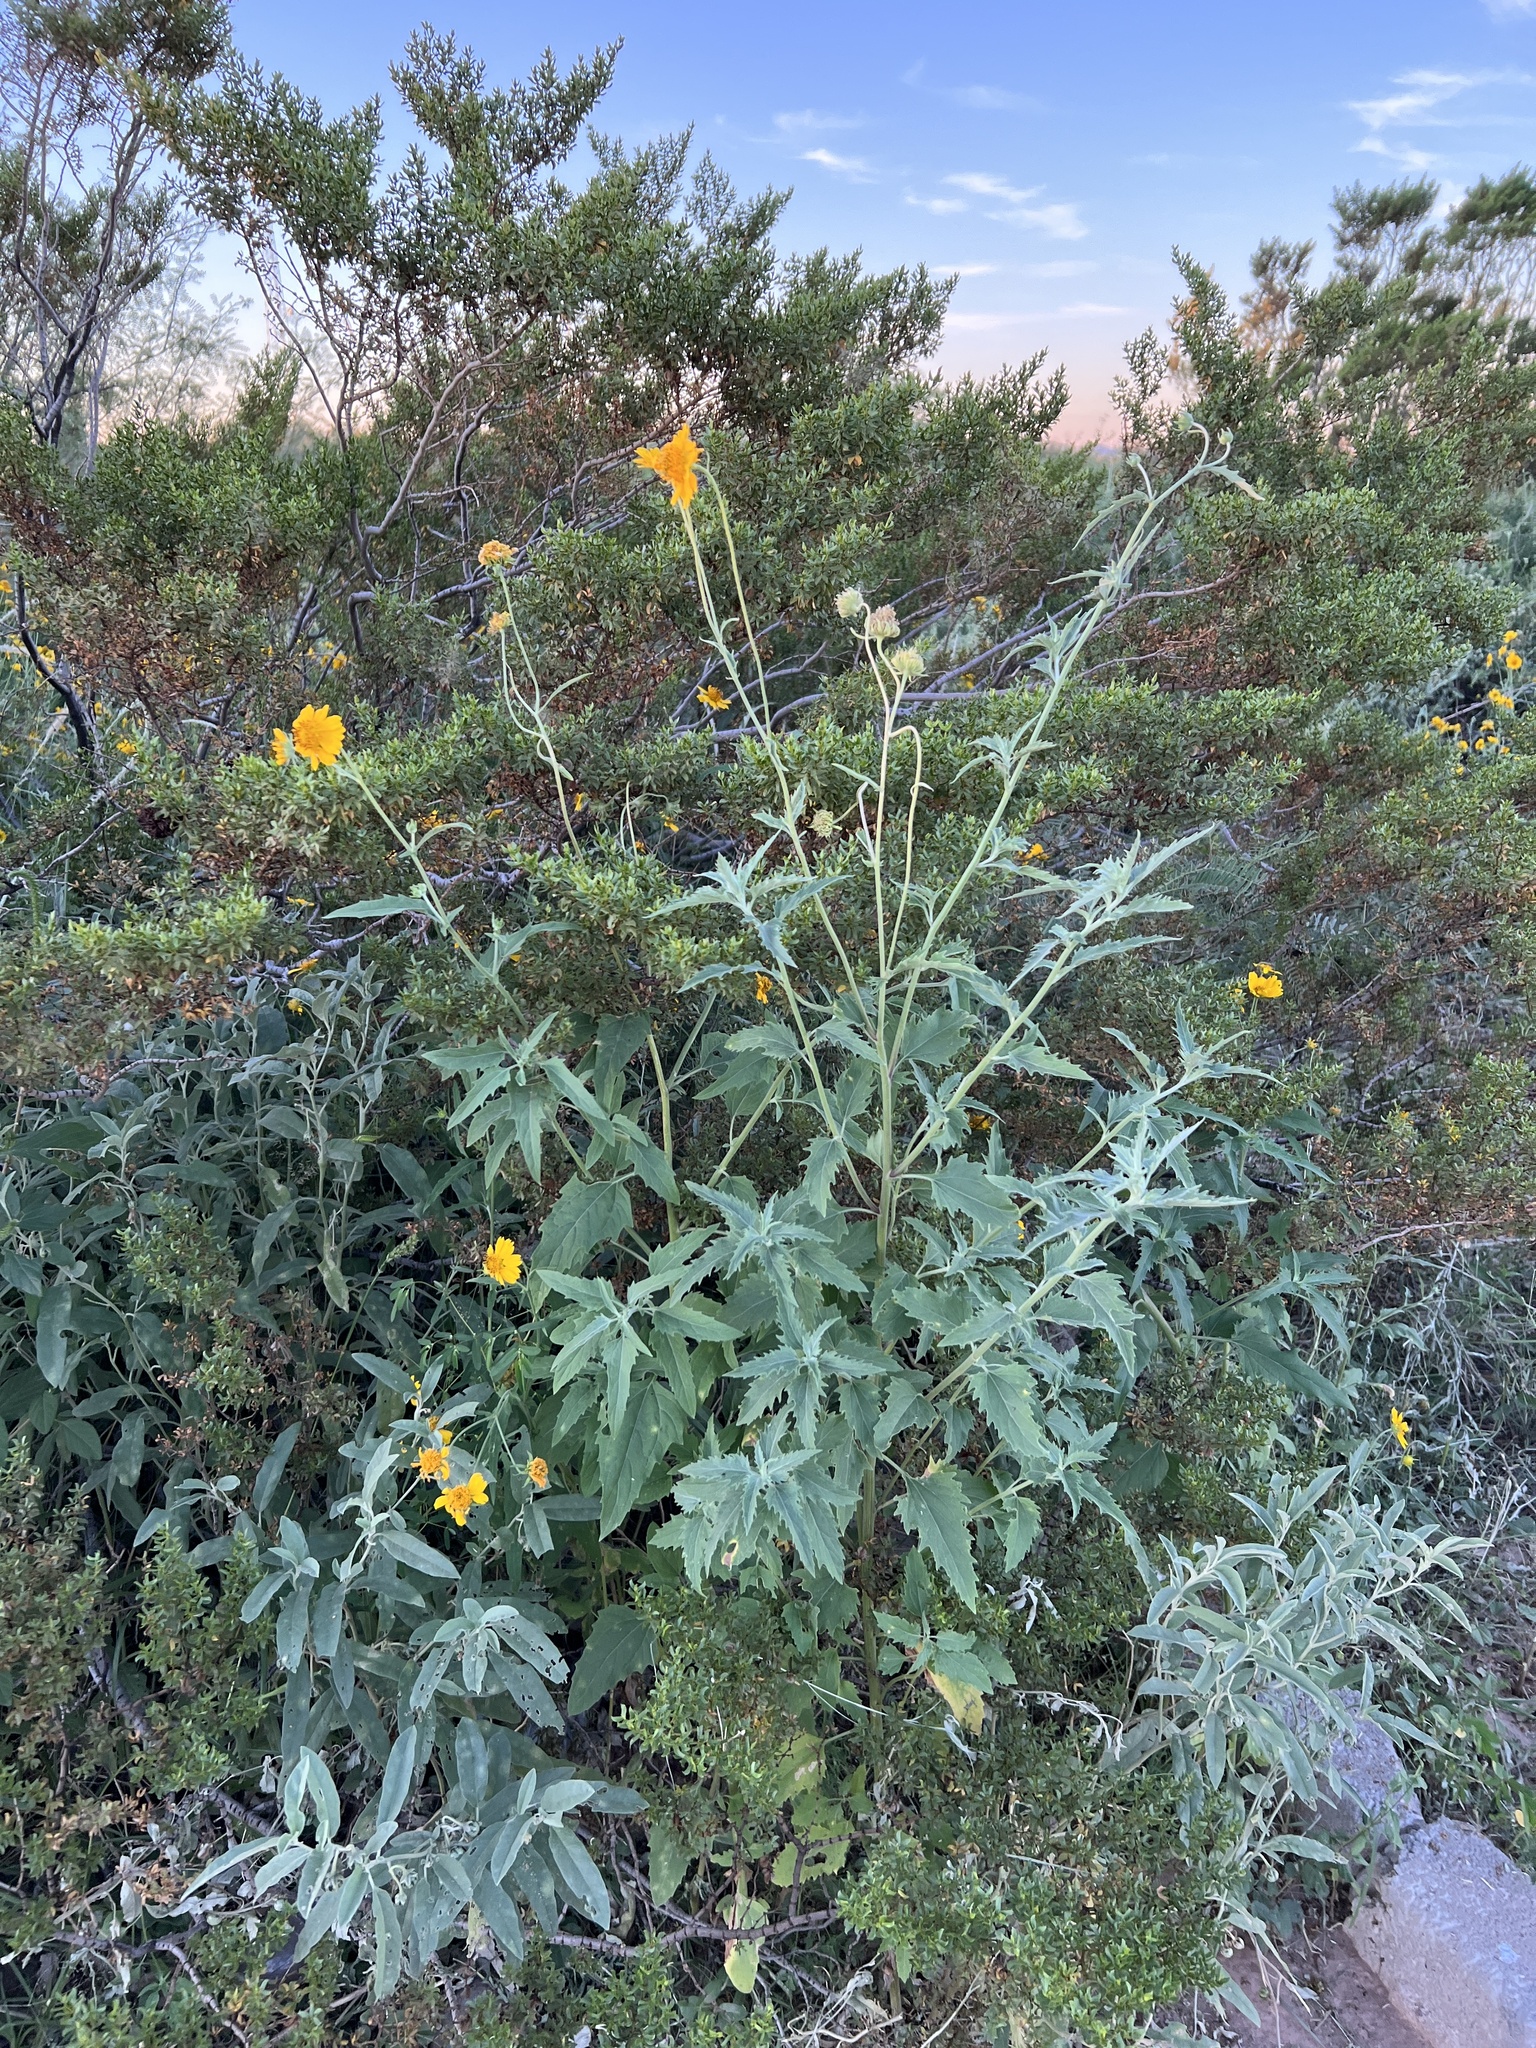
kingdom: Plantae
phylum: Tracheophyta
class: Magnoliopsida
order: Asterales
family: Asteraceae
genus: Verbesina
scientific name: Verbesina encelioides
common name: Golden crownbeard
